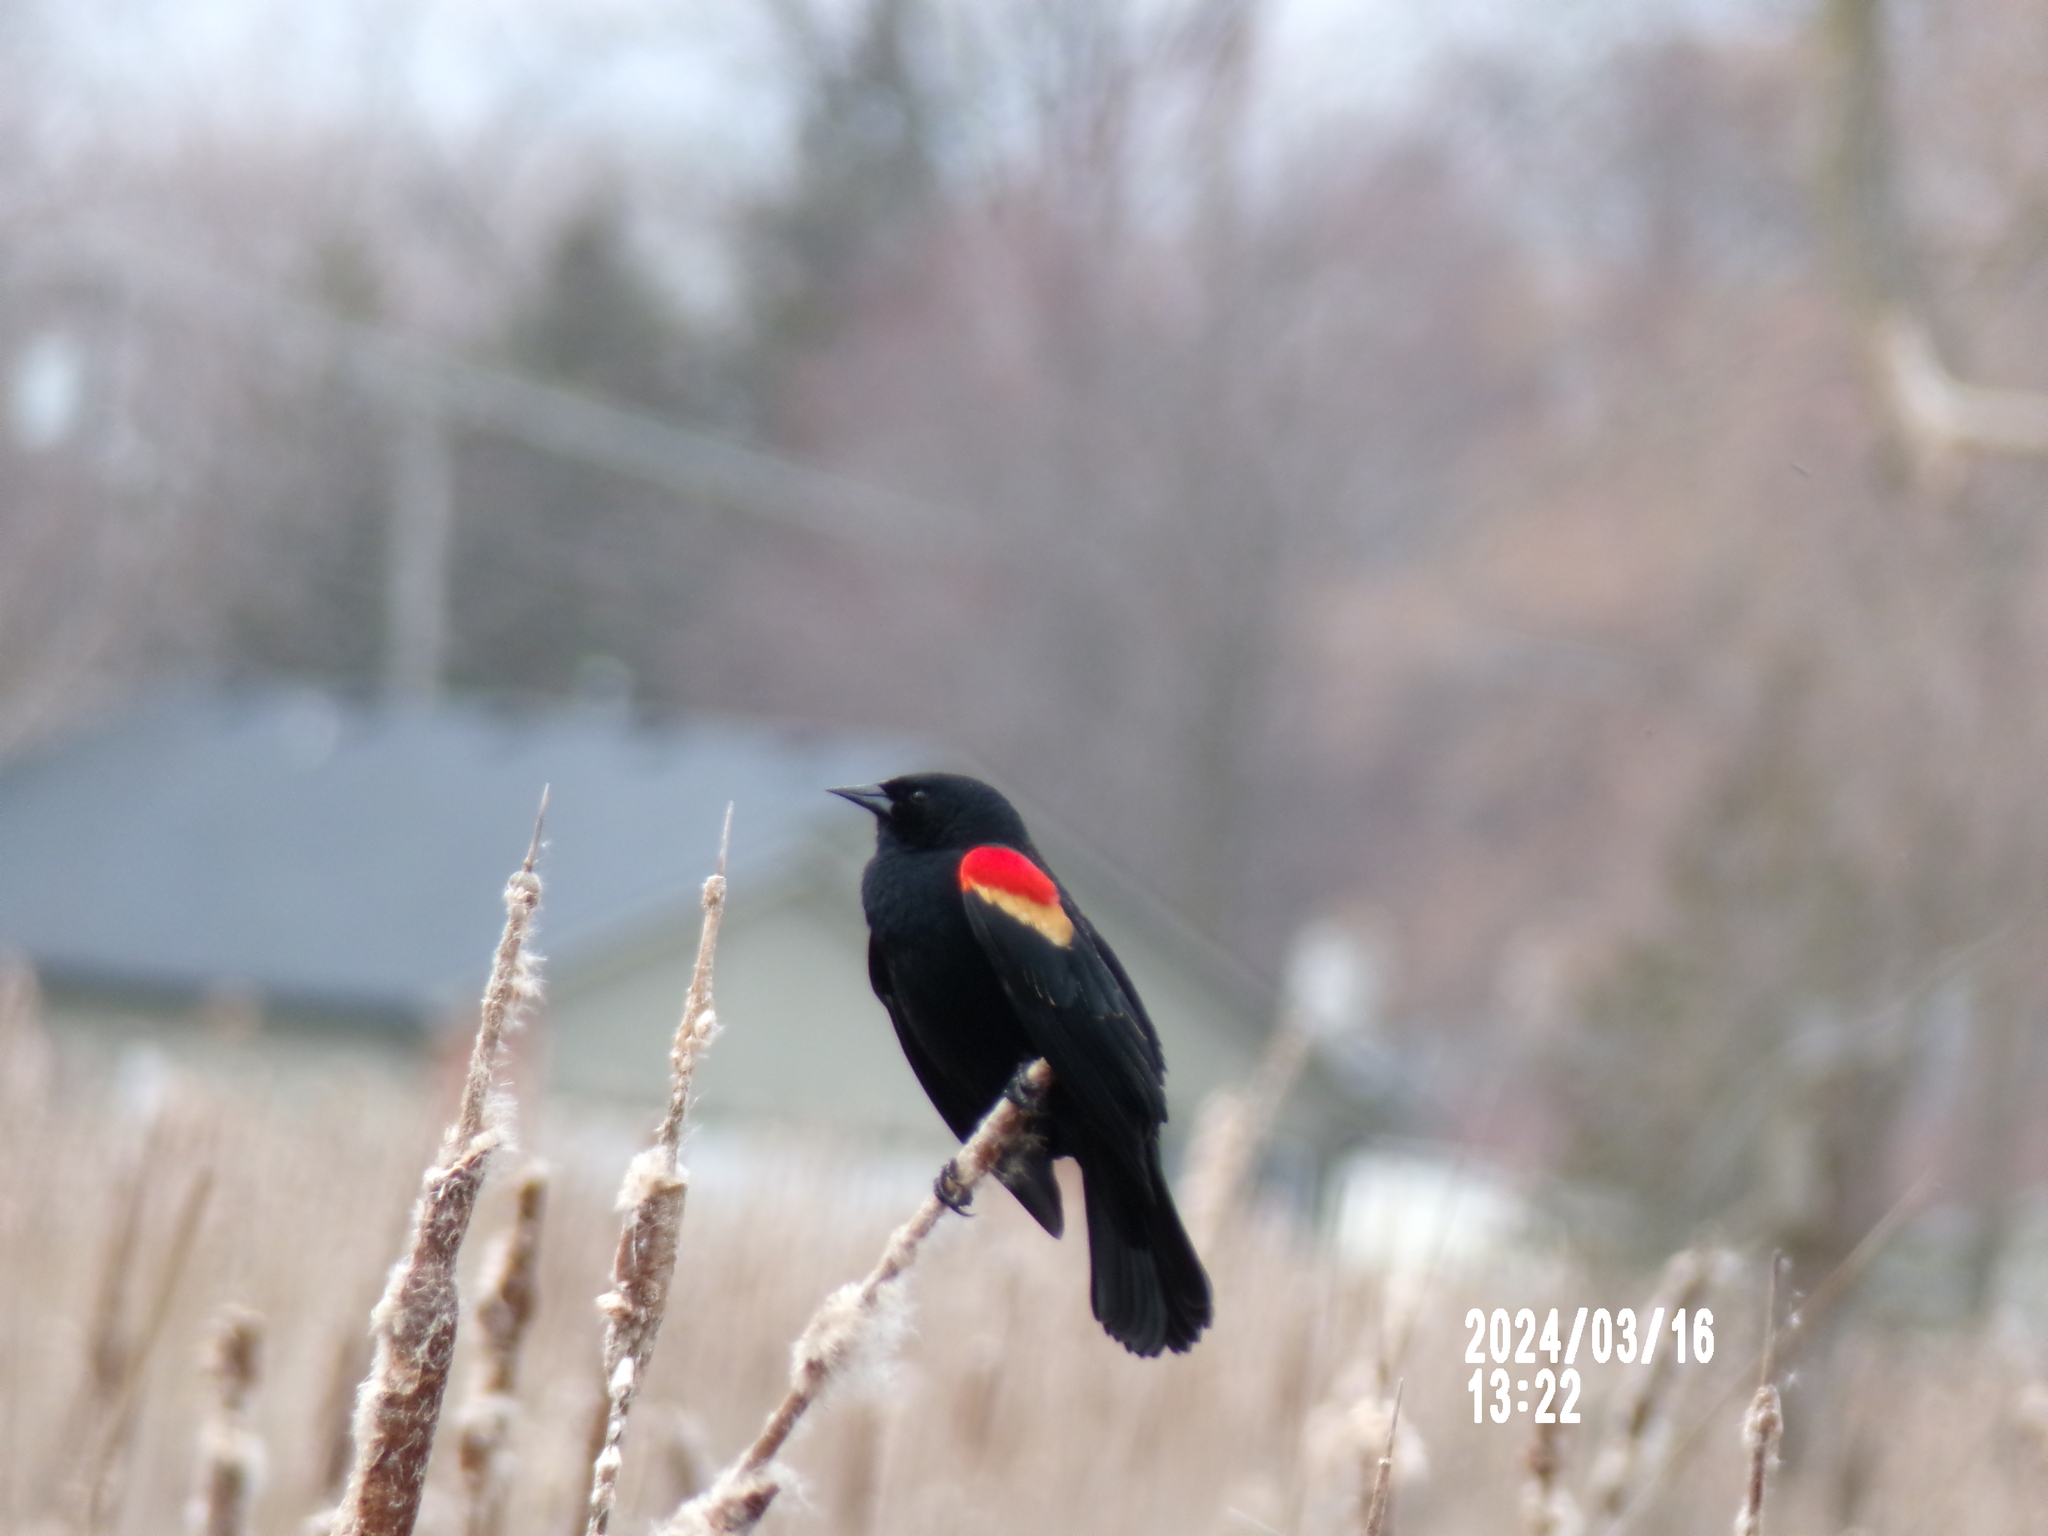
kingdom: Animalia
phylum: Chordata
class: Aves
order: Passeriformes
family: Icteridae
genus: Agelaius
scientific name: Agelaius phoeniceus
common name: Red-winged blackbird
